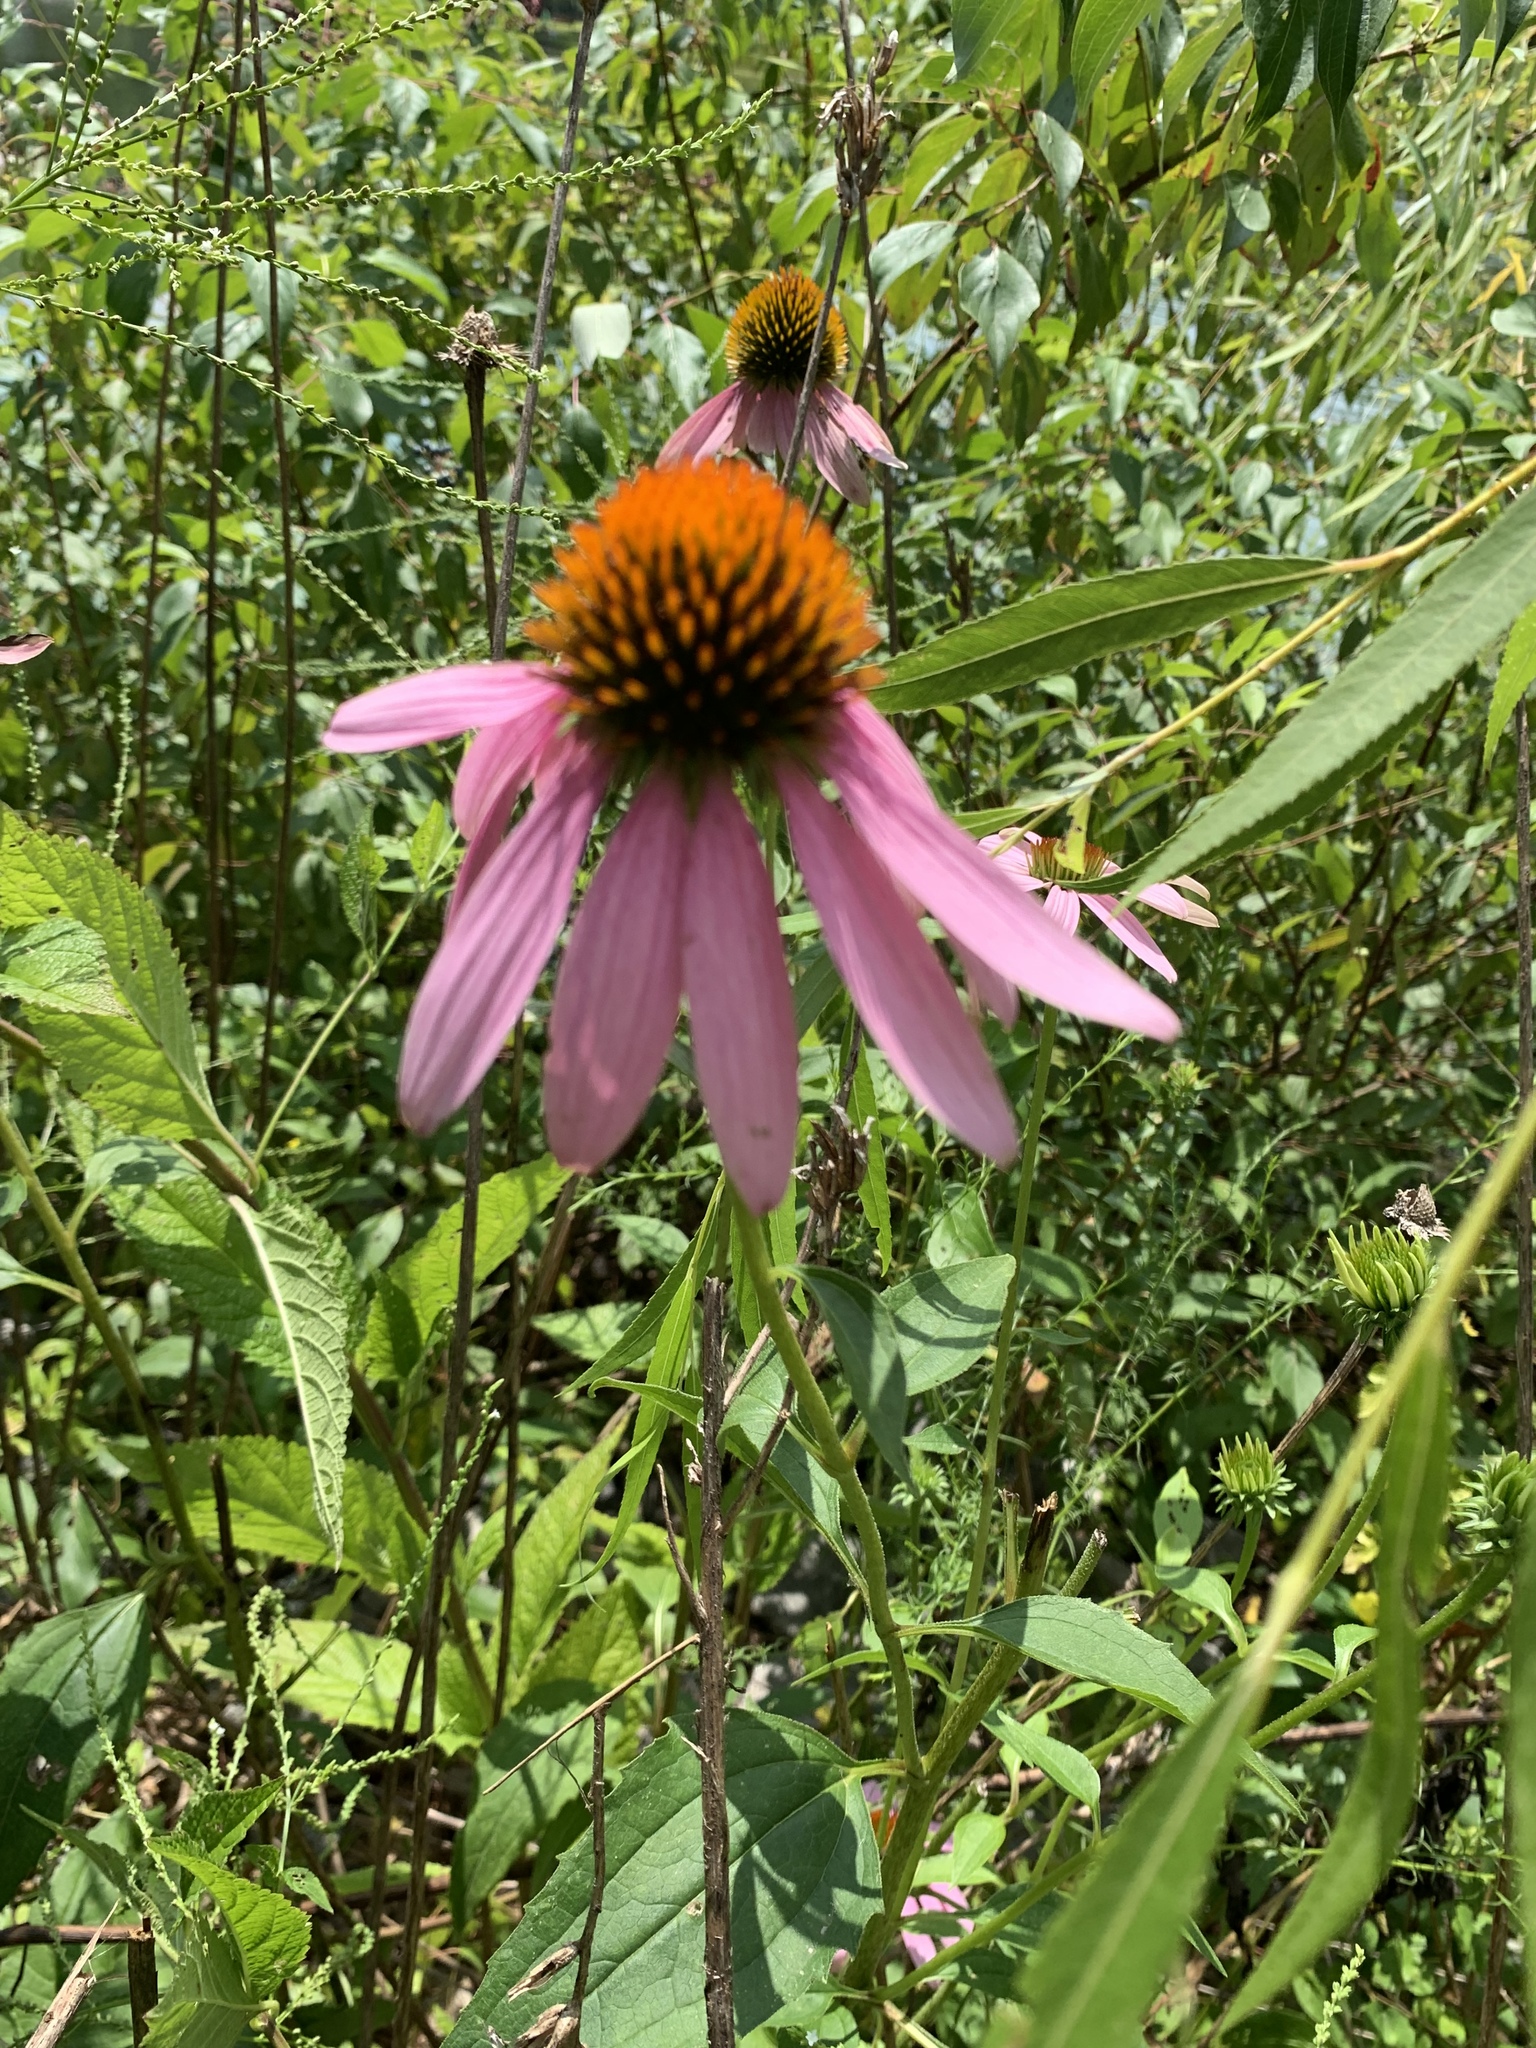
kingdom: Plantae
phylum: Tracheophyta
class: Magnoliopsida
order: Asterales
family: Asteraceae
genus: Echinacea
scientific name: Echinacea purpurea
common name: Broad-leaved purple coneflower
